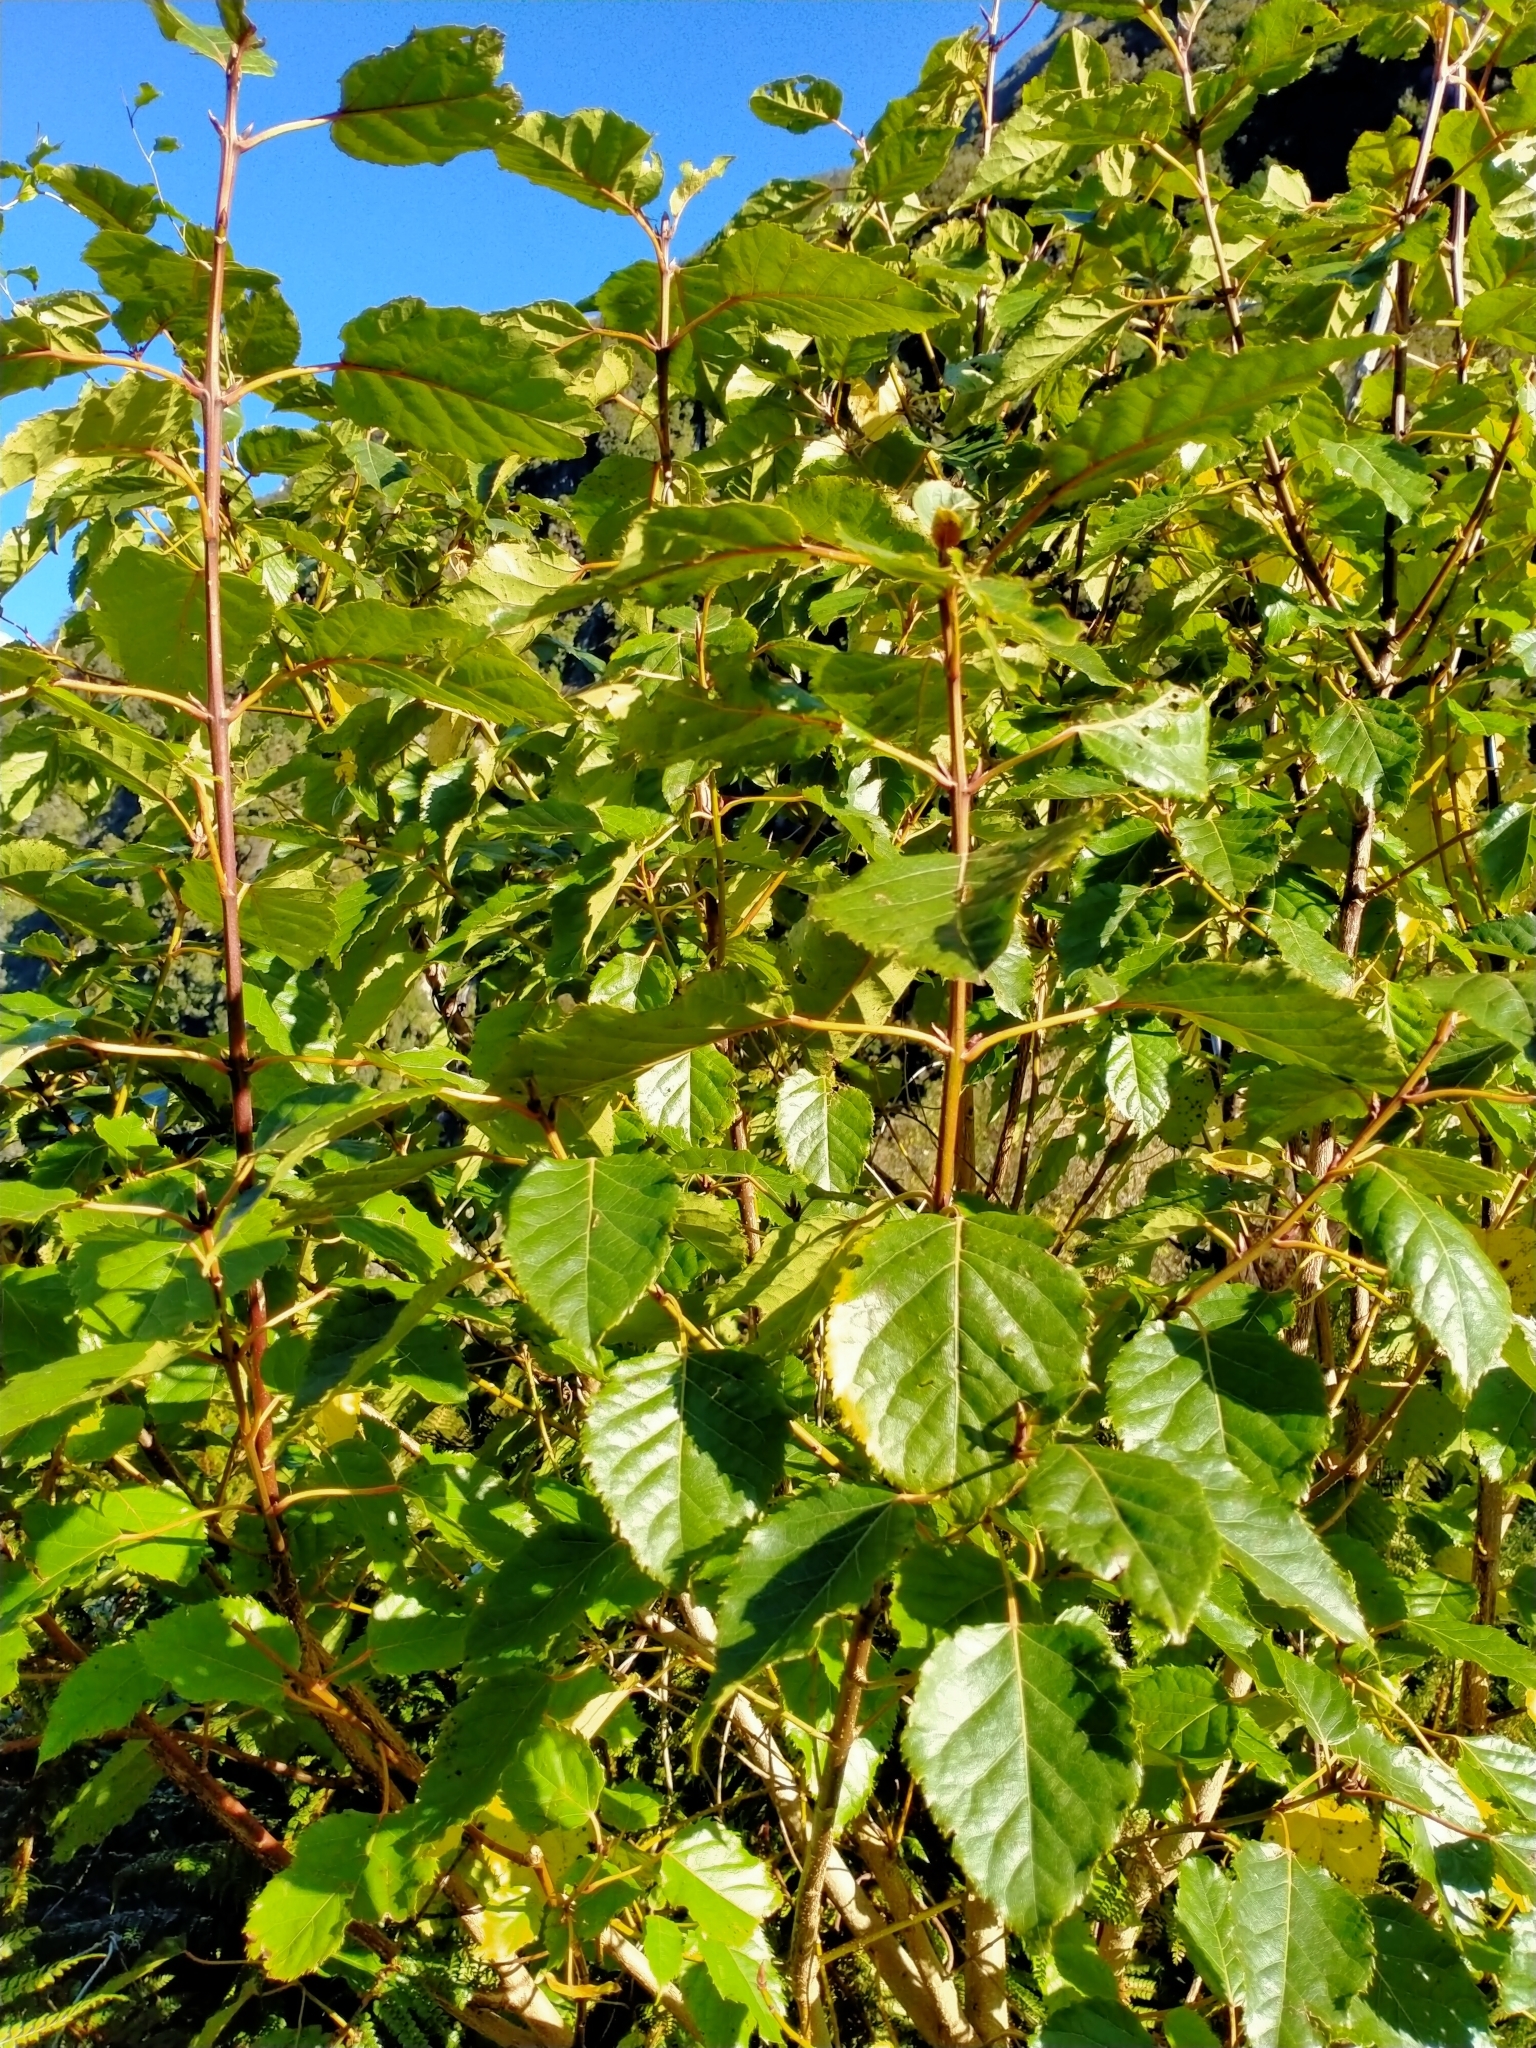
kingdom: Plantae
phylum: Tracheophyta
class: Magnoliopsida
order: Oxalidales
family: Elaeocarpaceae
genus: Aristotelia
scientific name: Aristotelia serrata
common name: New zealand wineberry
